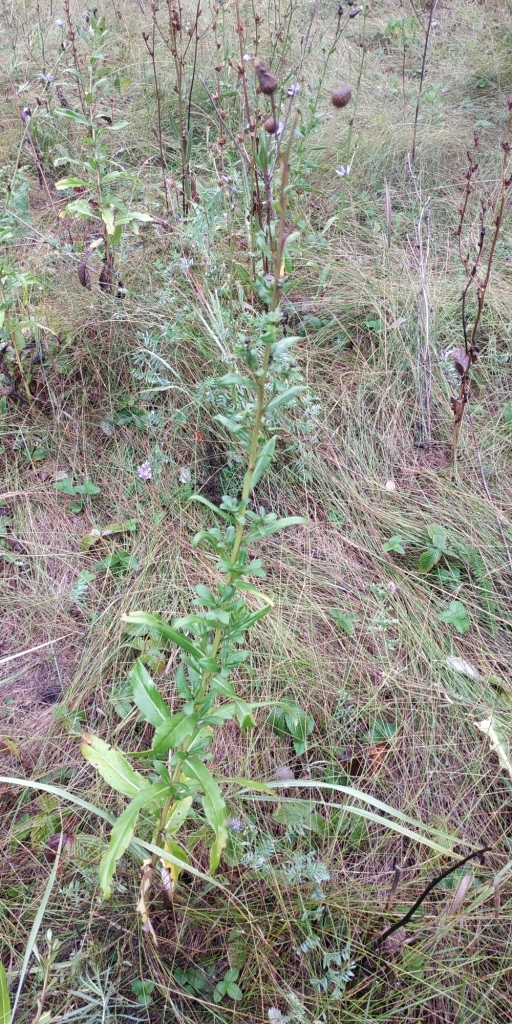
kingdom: Plantae
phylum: Tracheophyta
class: Magnoliopsida
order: Asterales
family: Asteraceae
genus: Cirsium
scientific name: Cirsium arvense
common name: Creeping thistle
